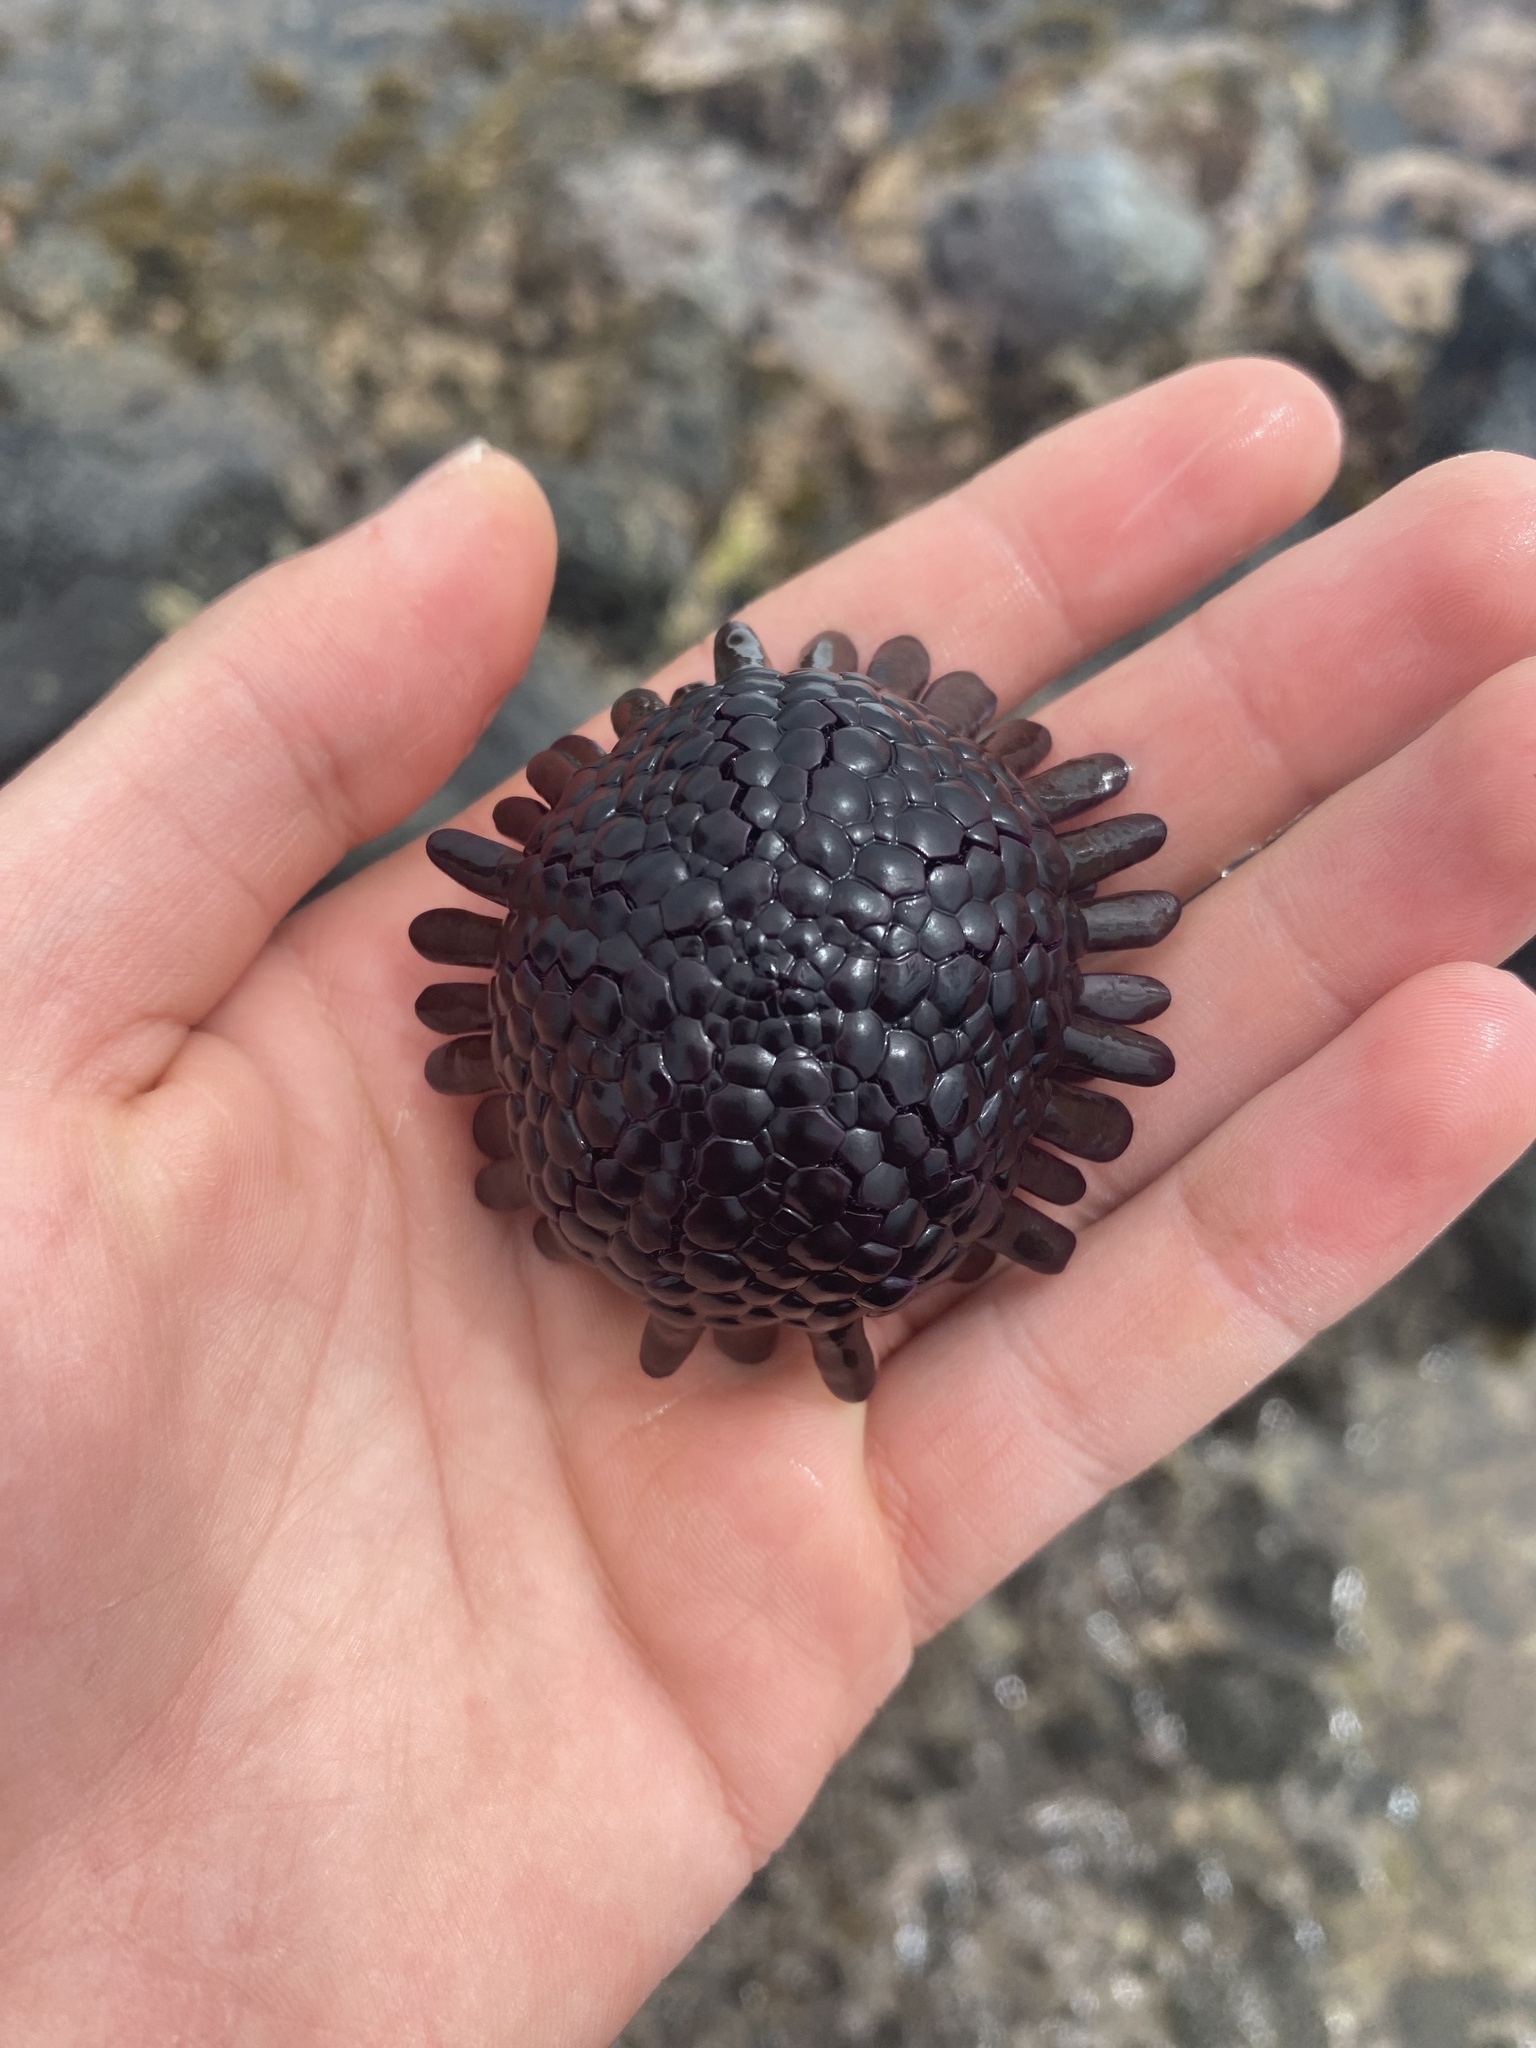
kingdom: Animalia
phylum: Echinodermata
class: Echinoidea
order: Camarodonta
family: Echinometridae
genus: Colobocentrotus
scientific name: Colobocentrotus atratus
